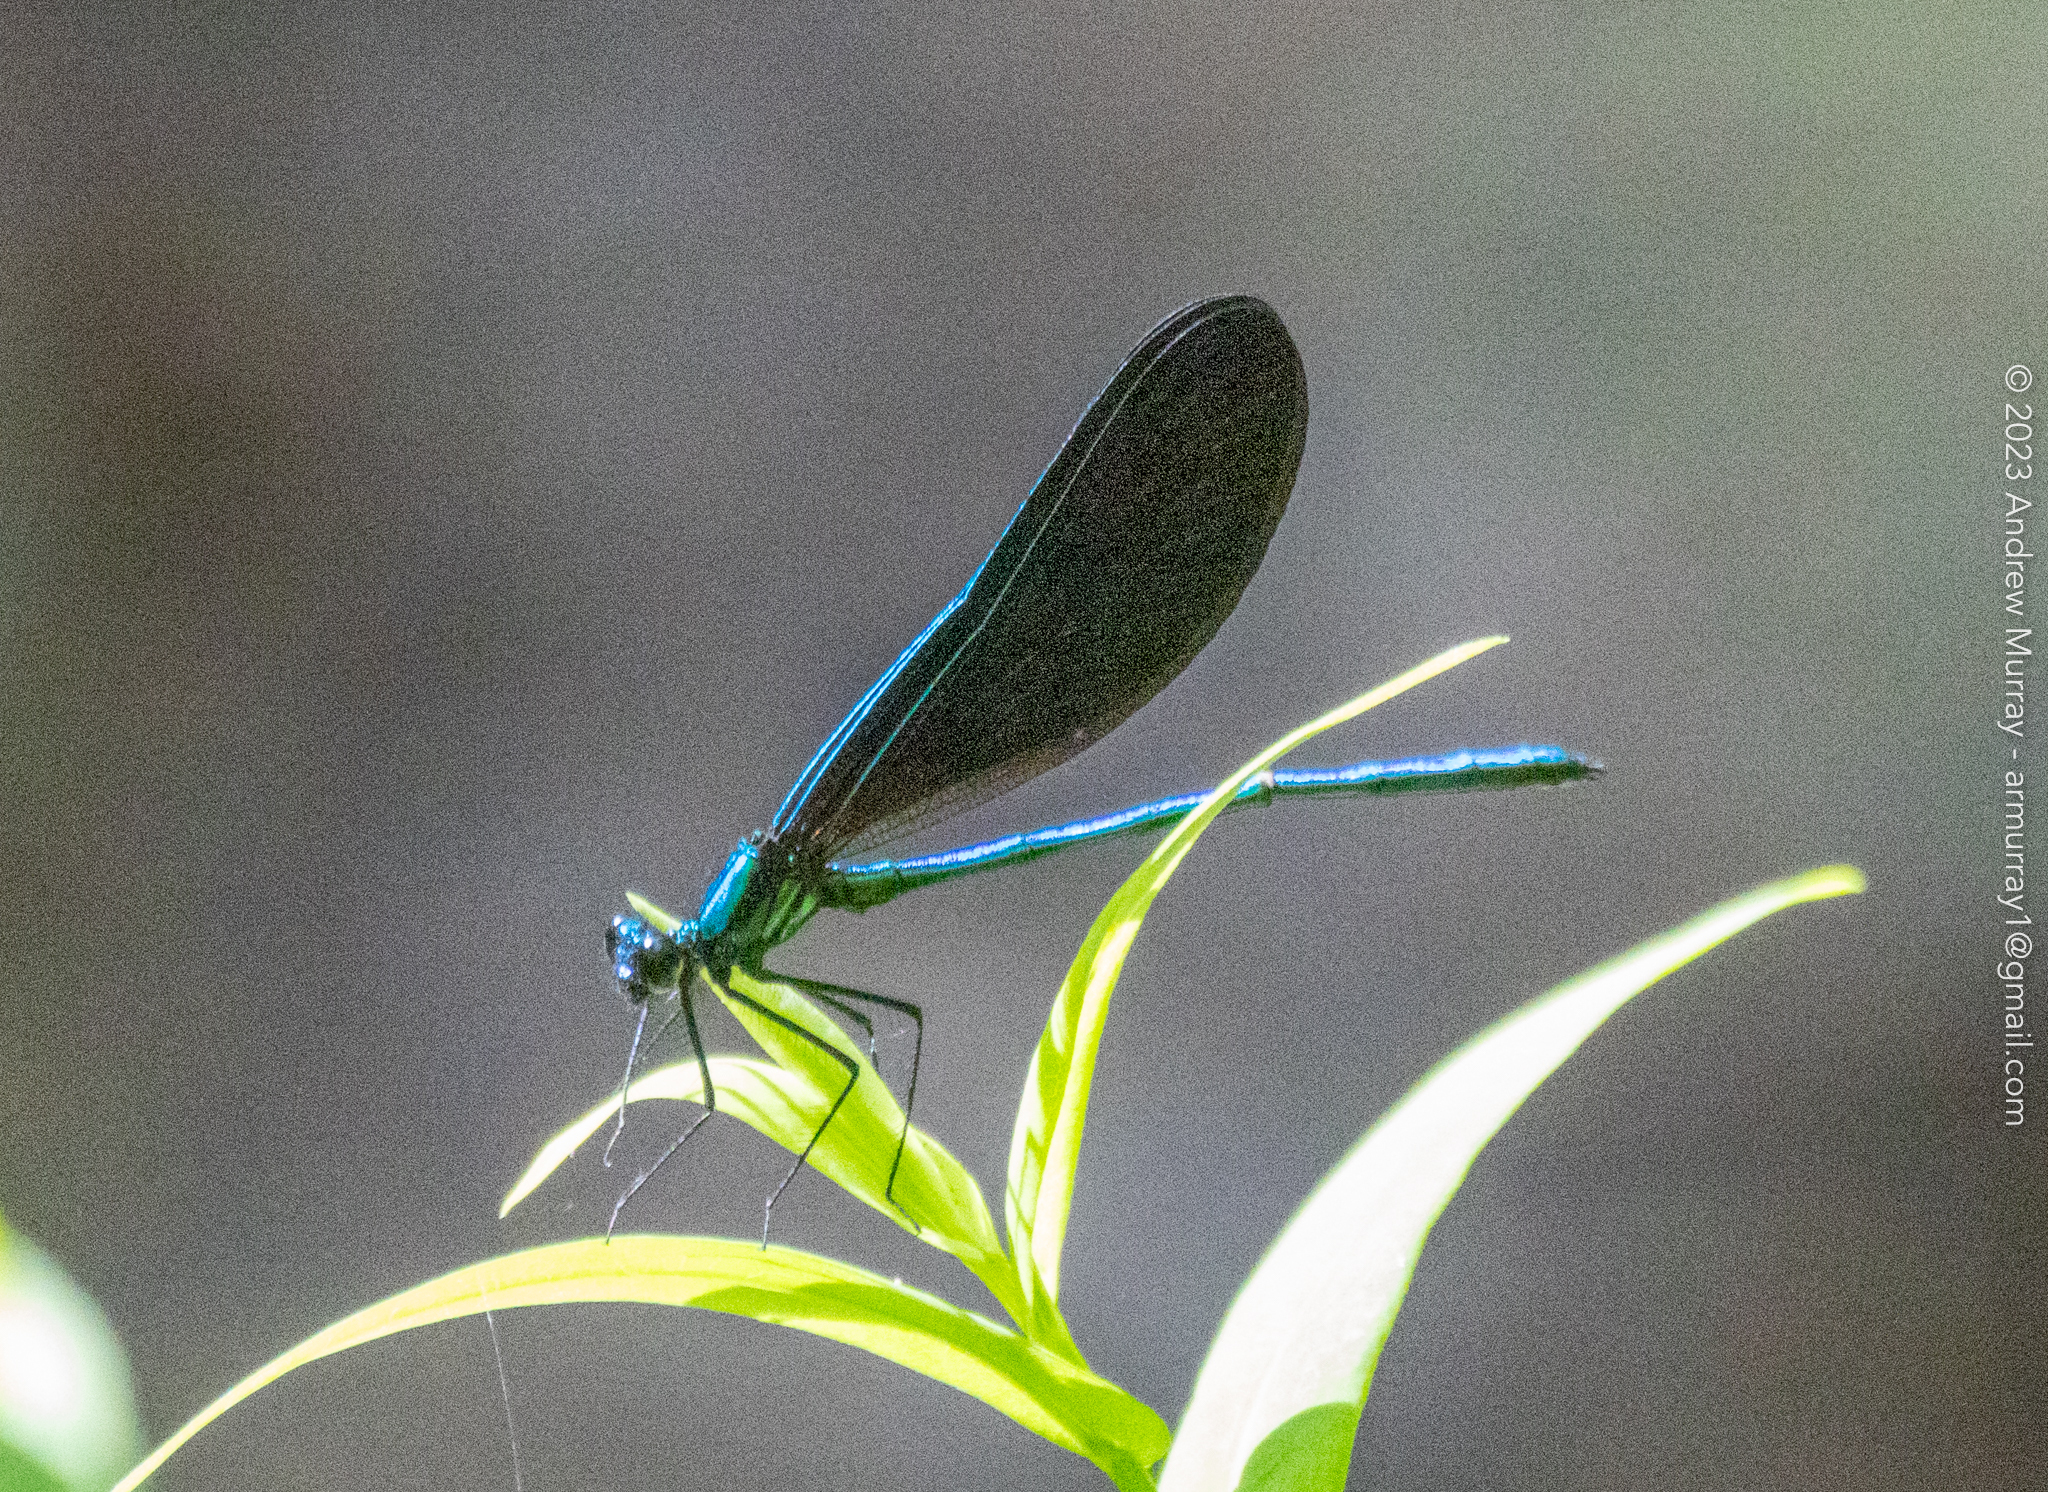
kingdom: Animalia
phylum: Arthropoda
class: Insecta
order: Odonata
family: Calopterygidae
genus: Calopteryx
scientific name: Calopteryx maculata
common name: Ebony jewelwing
